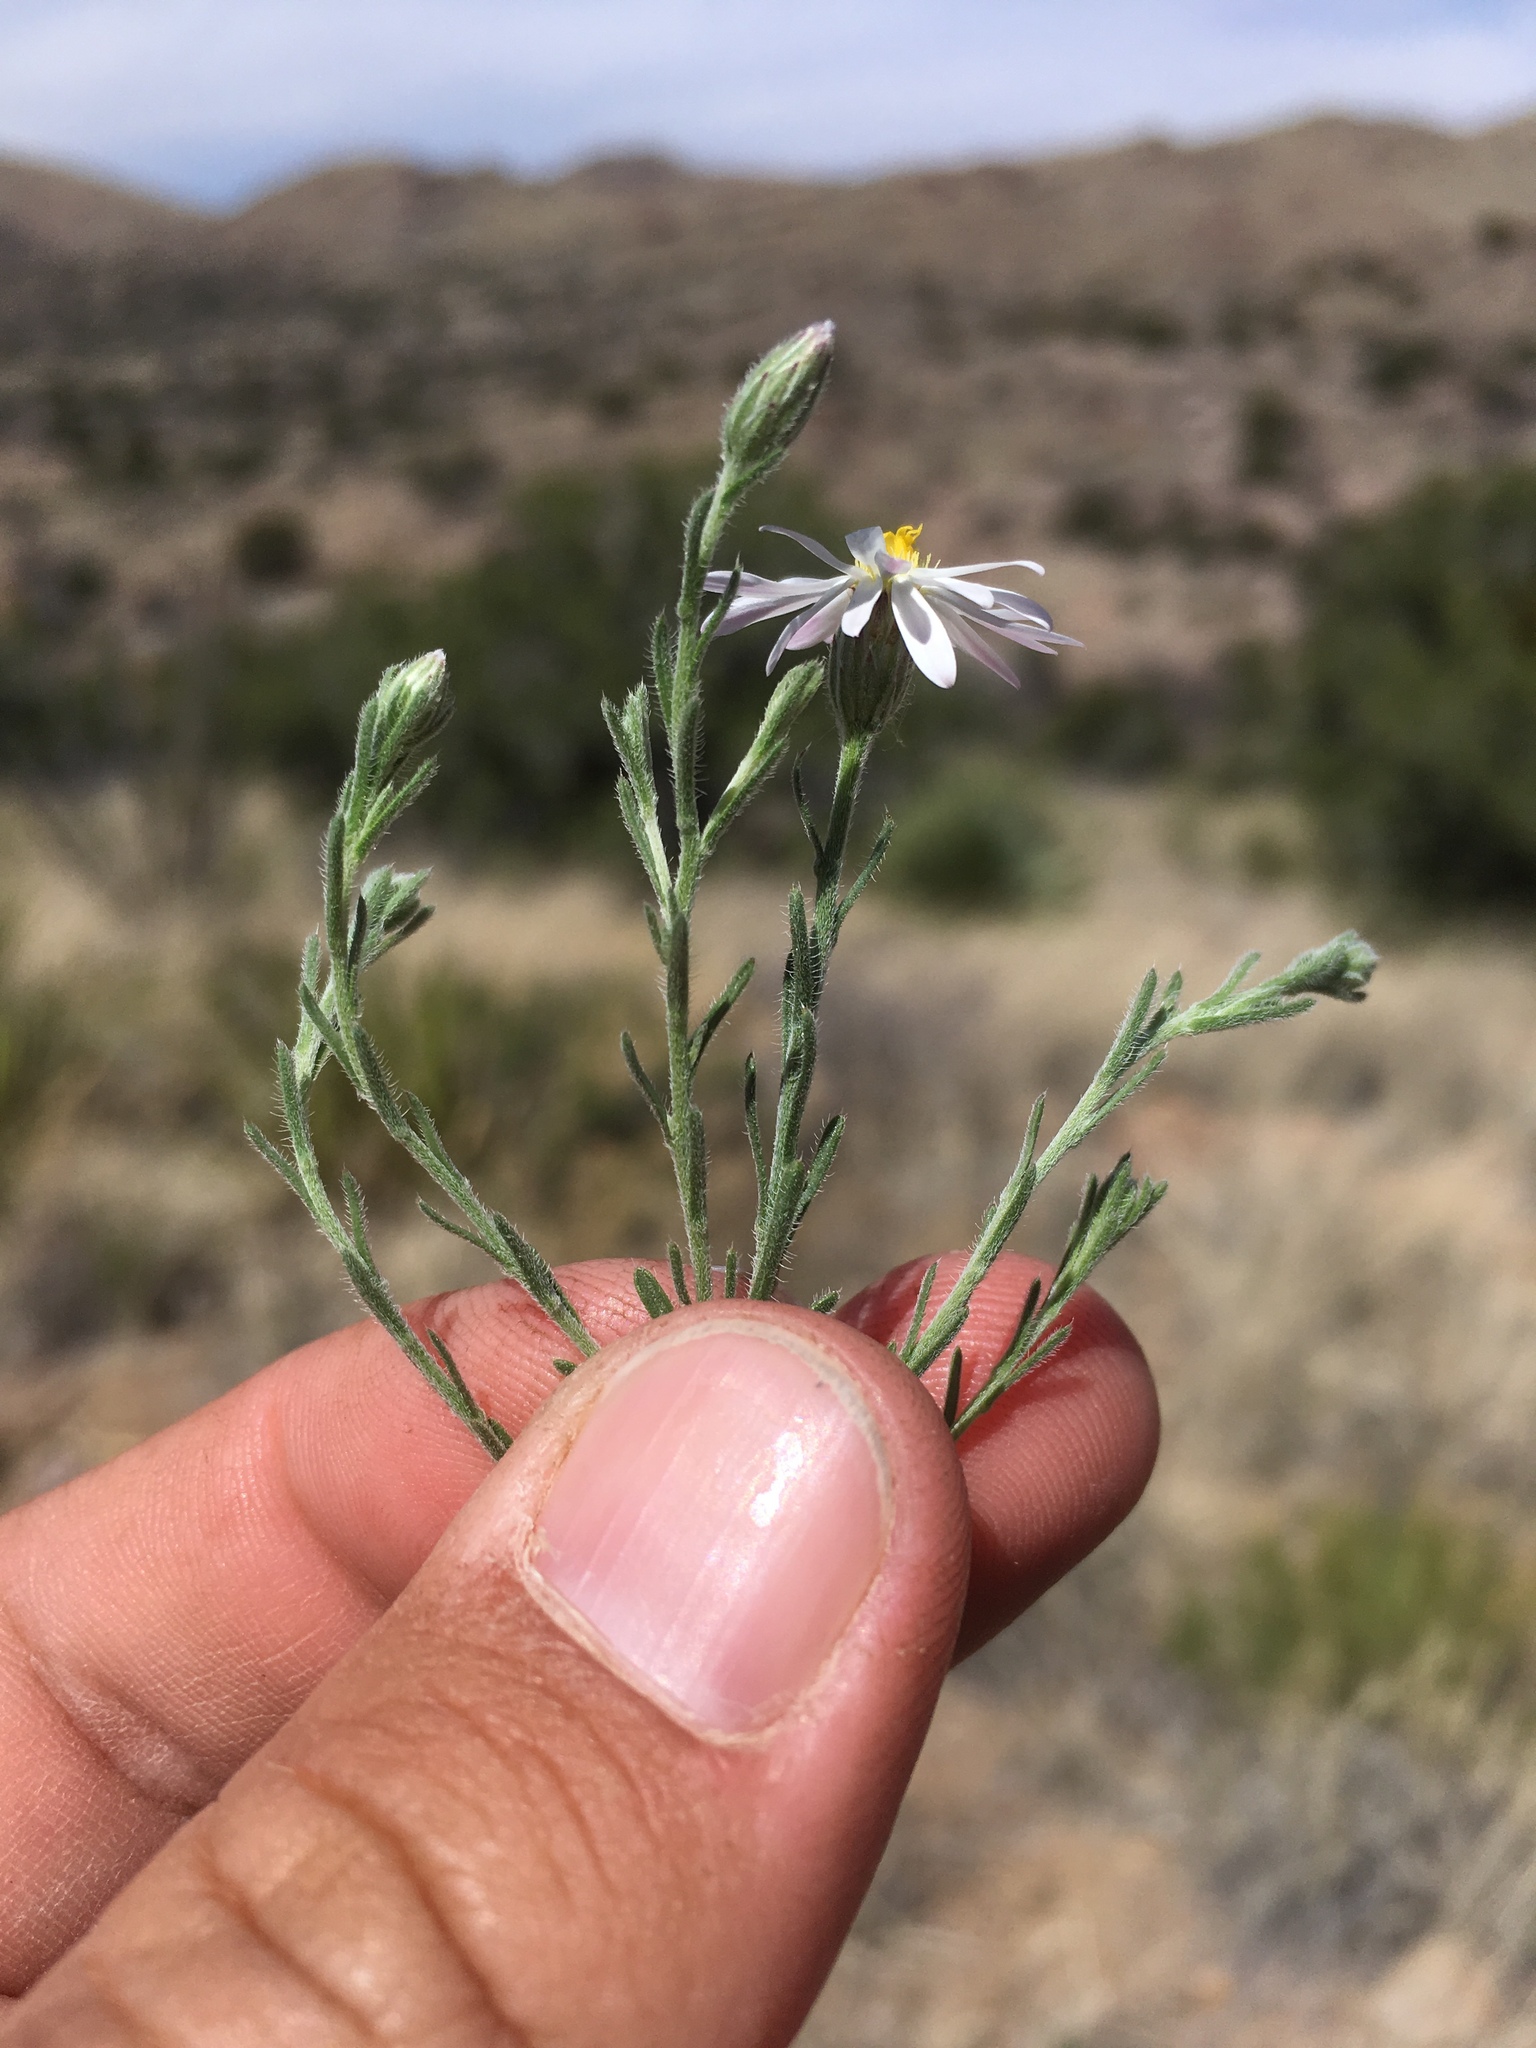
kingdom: Plantae
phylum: Tracheophyta
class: Magnoliopsida
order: Asterales
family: Asteraceae
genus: Chaetopappa
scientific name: Chaetopappa ericoides
